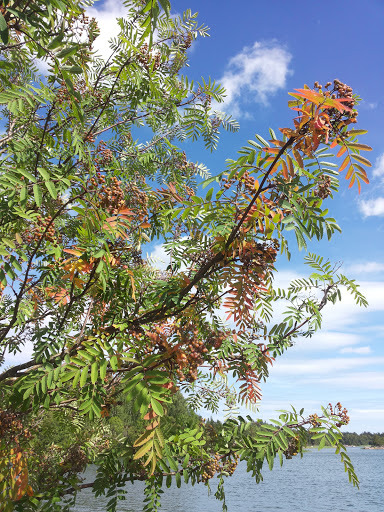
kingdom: Plantae
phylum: Tracheophyta
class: Magnoliopsida
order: Rosales
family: Rosaceae
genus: Sorbus
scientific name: Sorbus aucuparia
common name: Rowan
